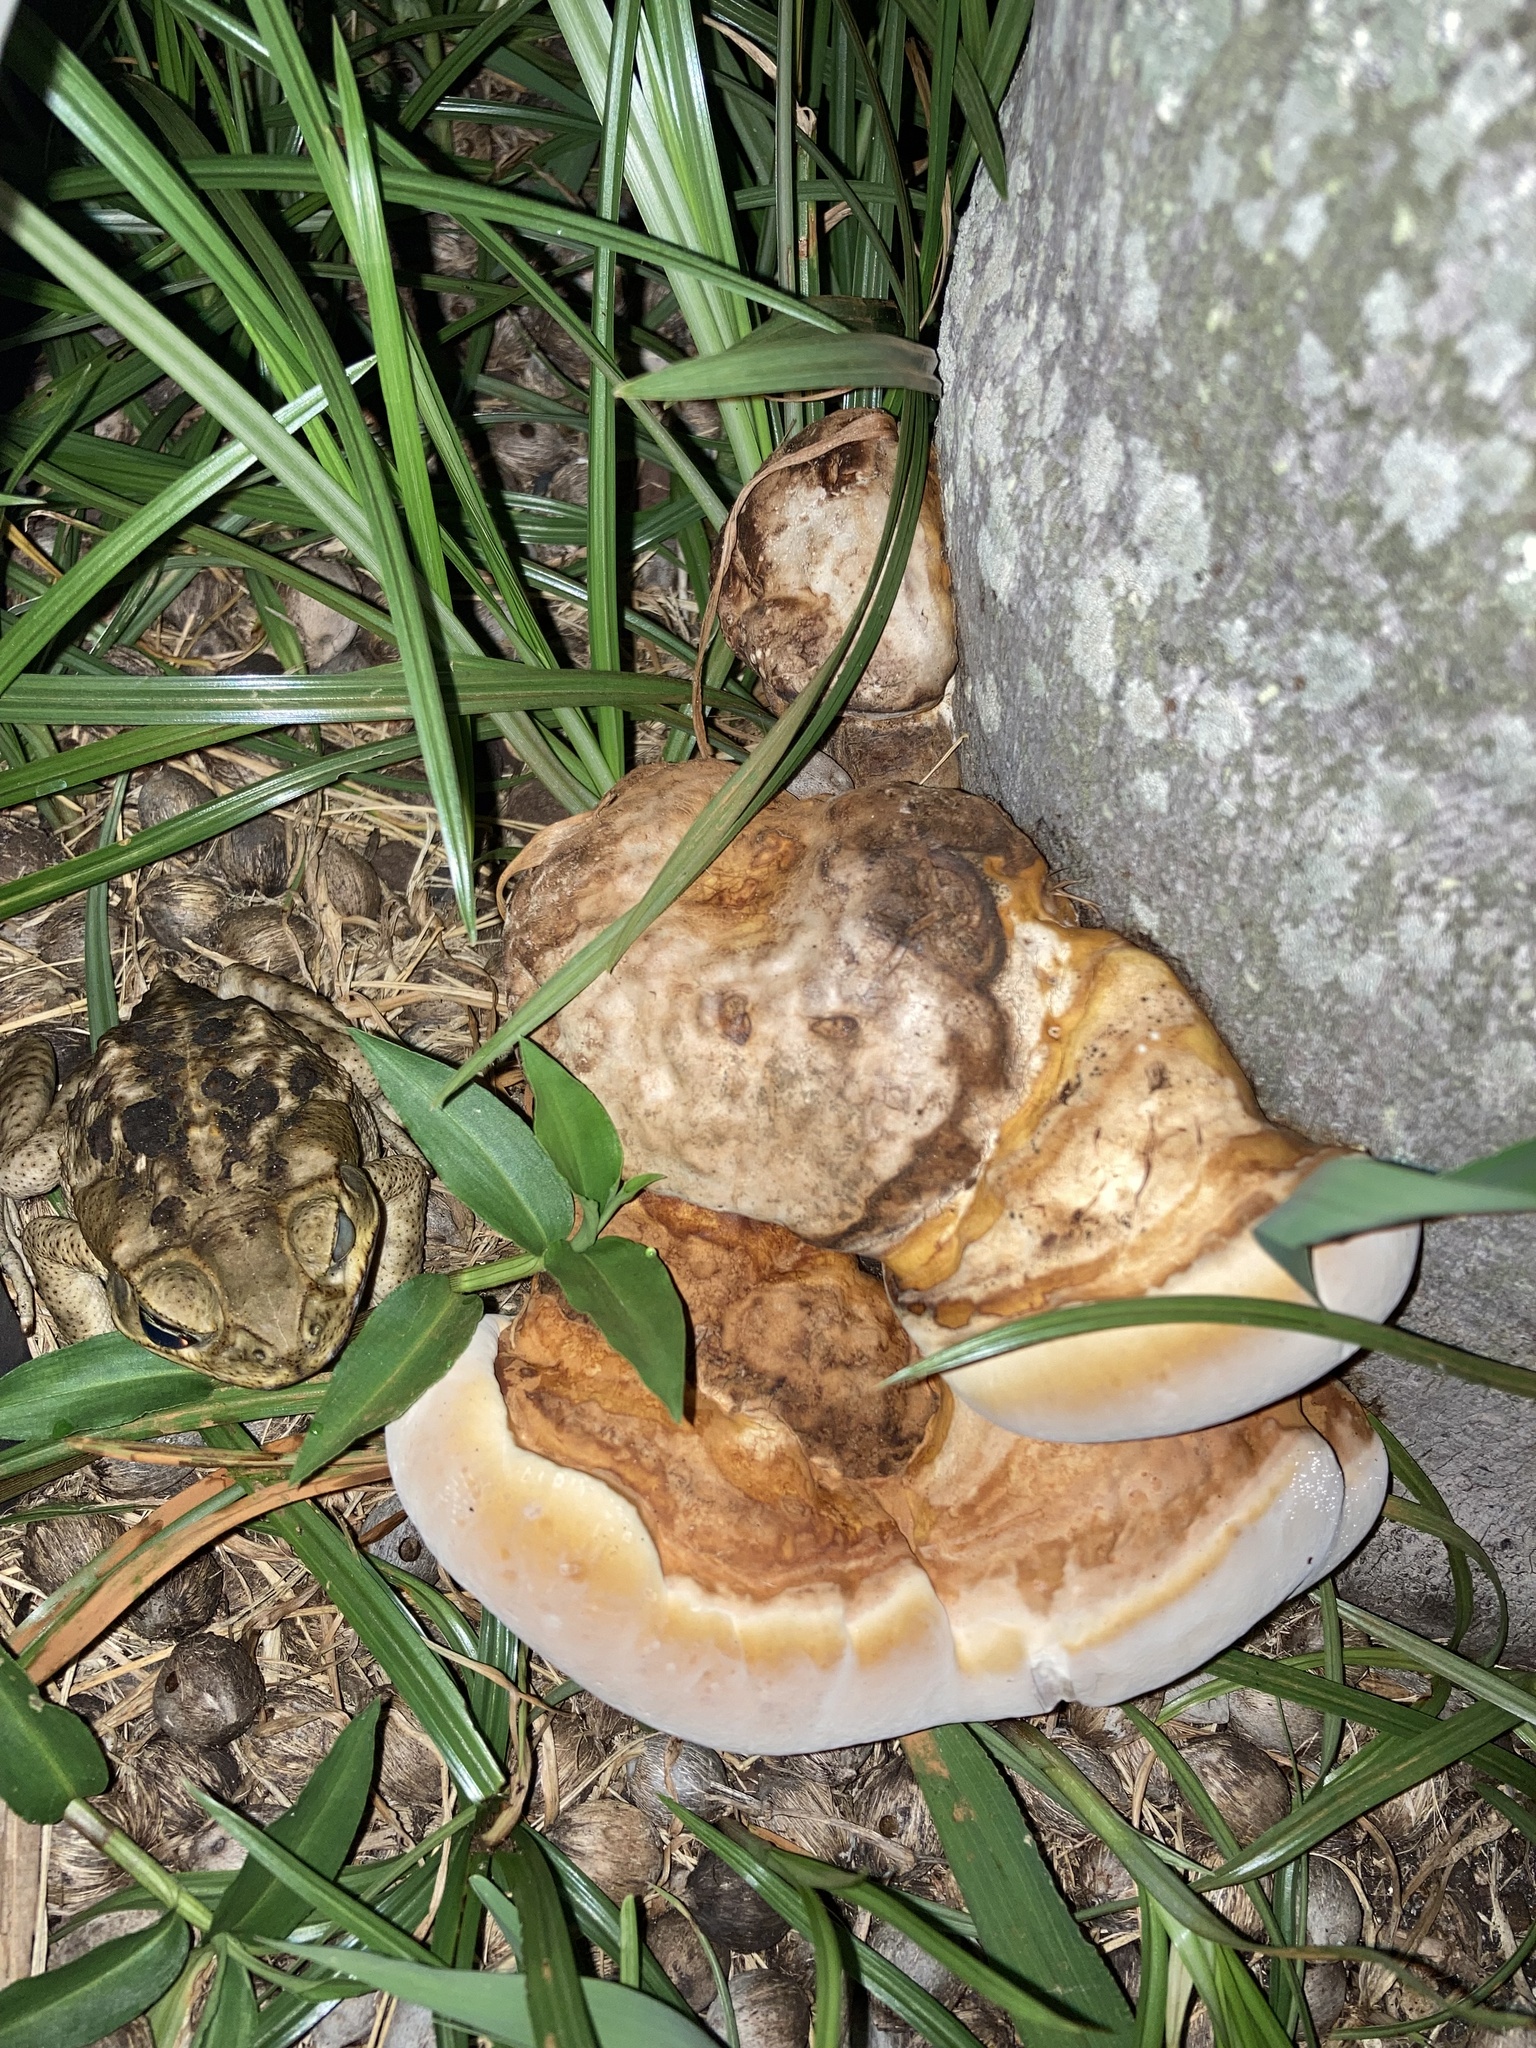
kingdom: Fungi
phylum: Basidiomycota
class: Agaricomycetes
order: Polyporales
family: Polyporaceae
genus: Ganoderma
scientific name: Ganoderma zonatum
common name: Ganoderma butt rot
